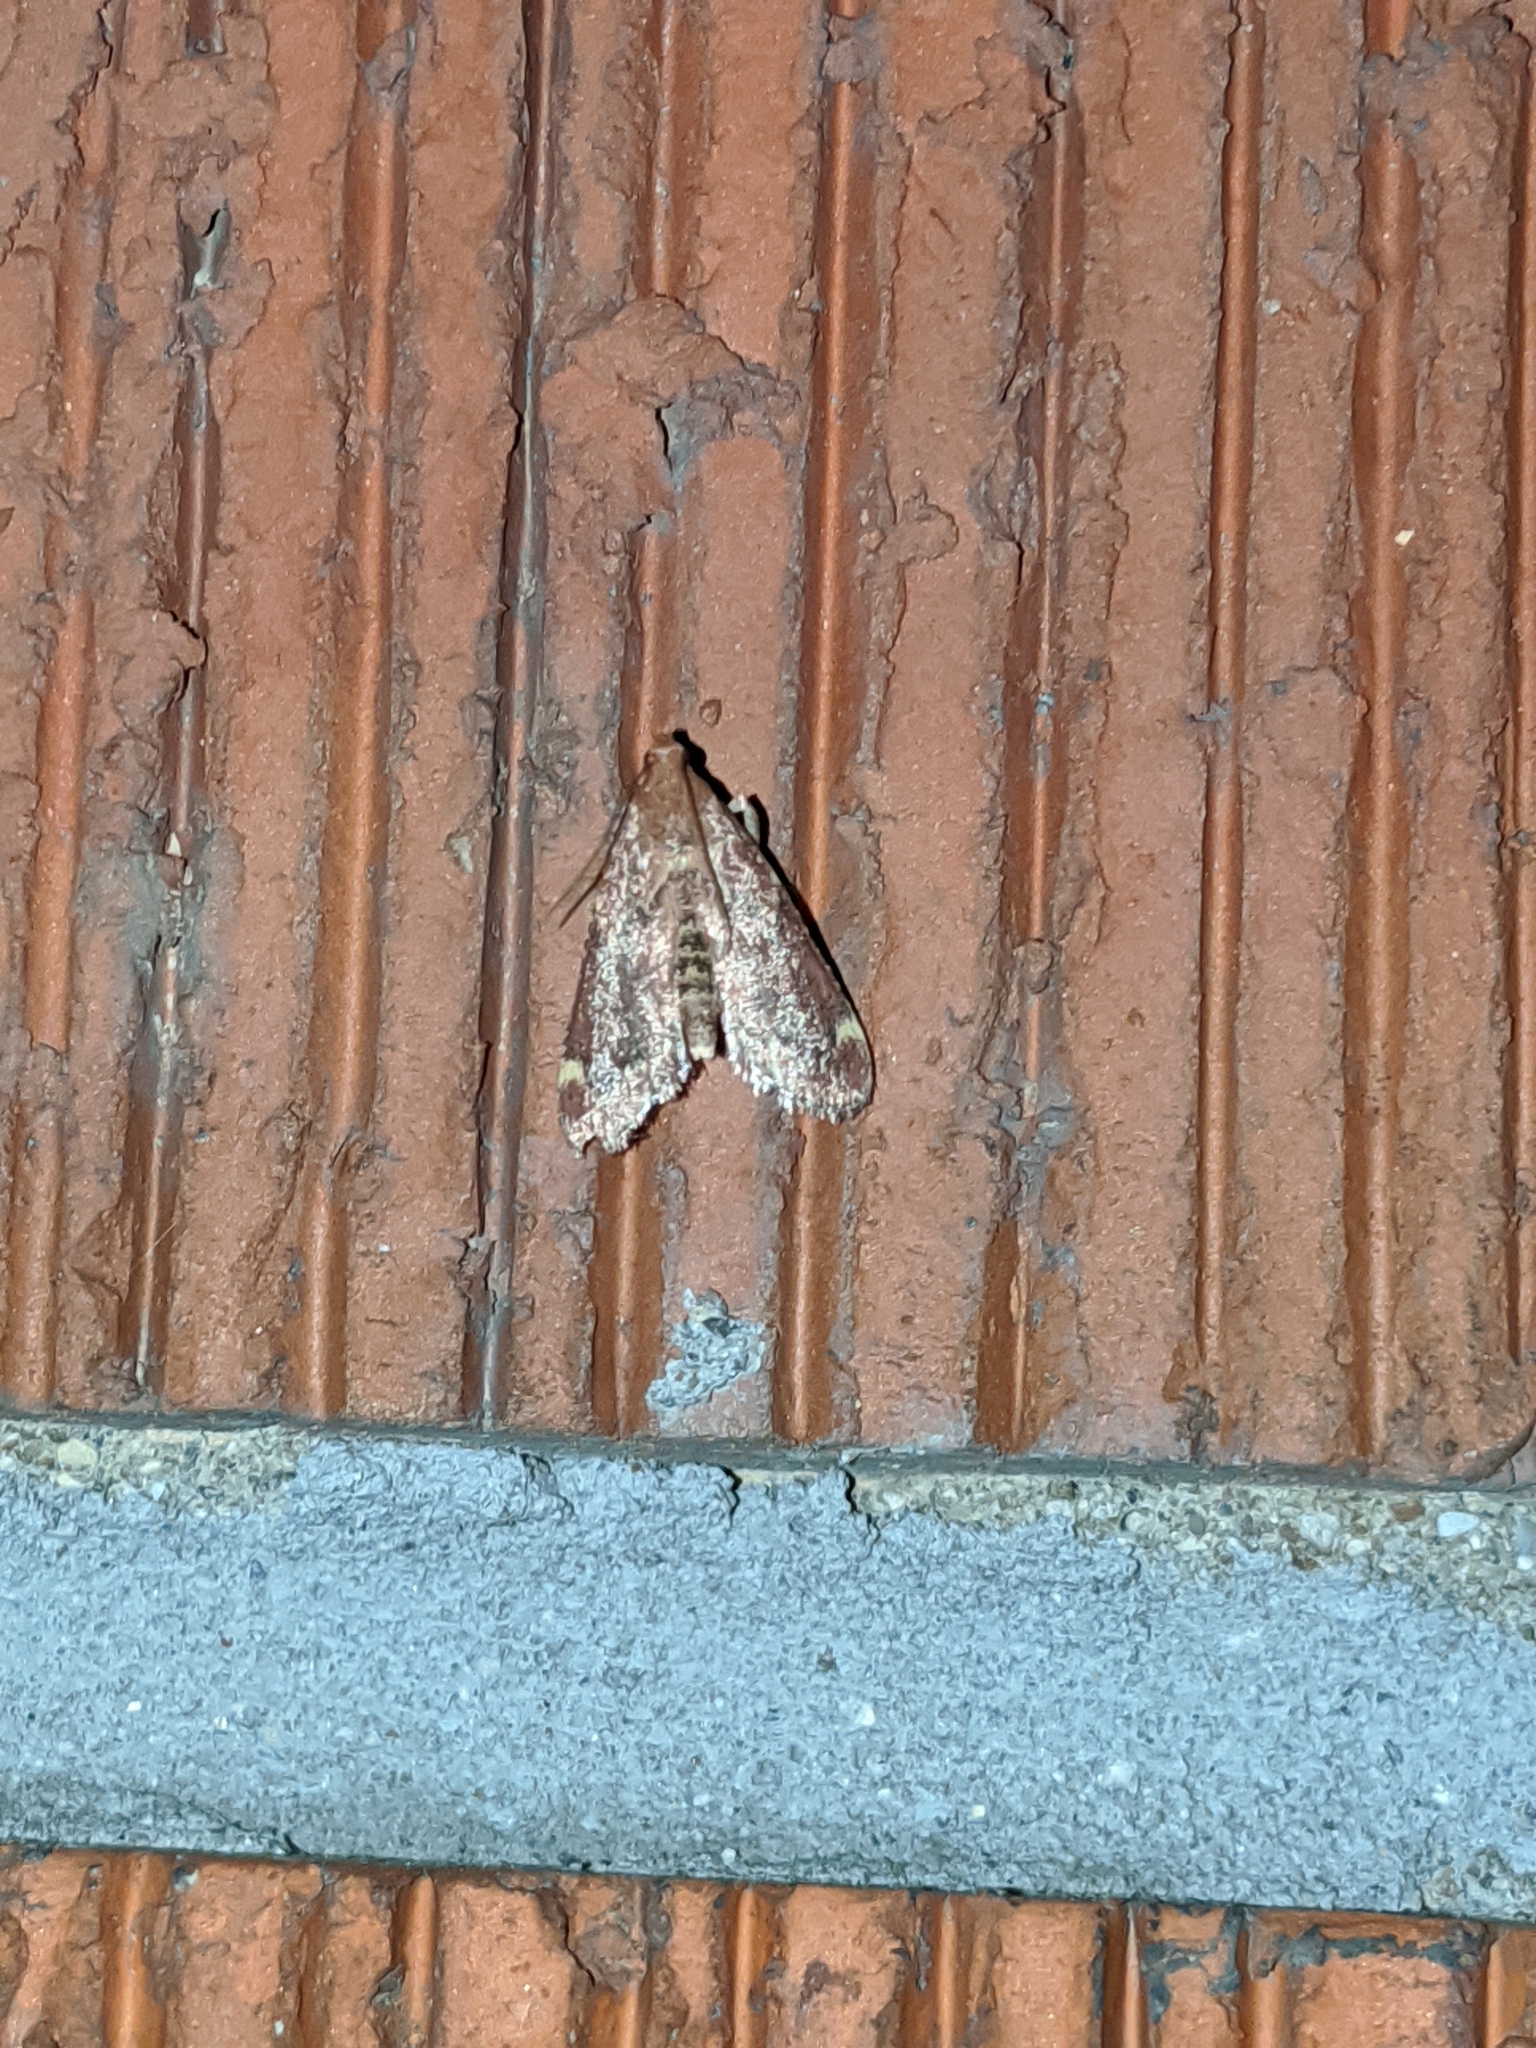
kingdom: Animalia
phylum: Arthropoda
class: Insecta
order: Lepidoptera
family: Pyralidae
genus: Hypsopygia
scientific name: Hypsopygia
